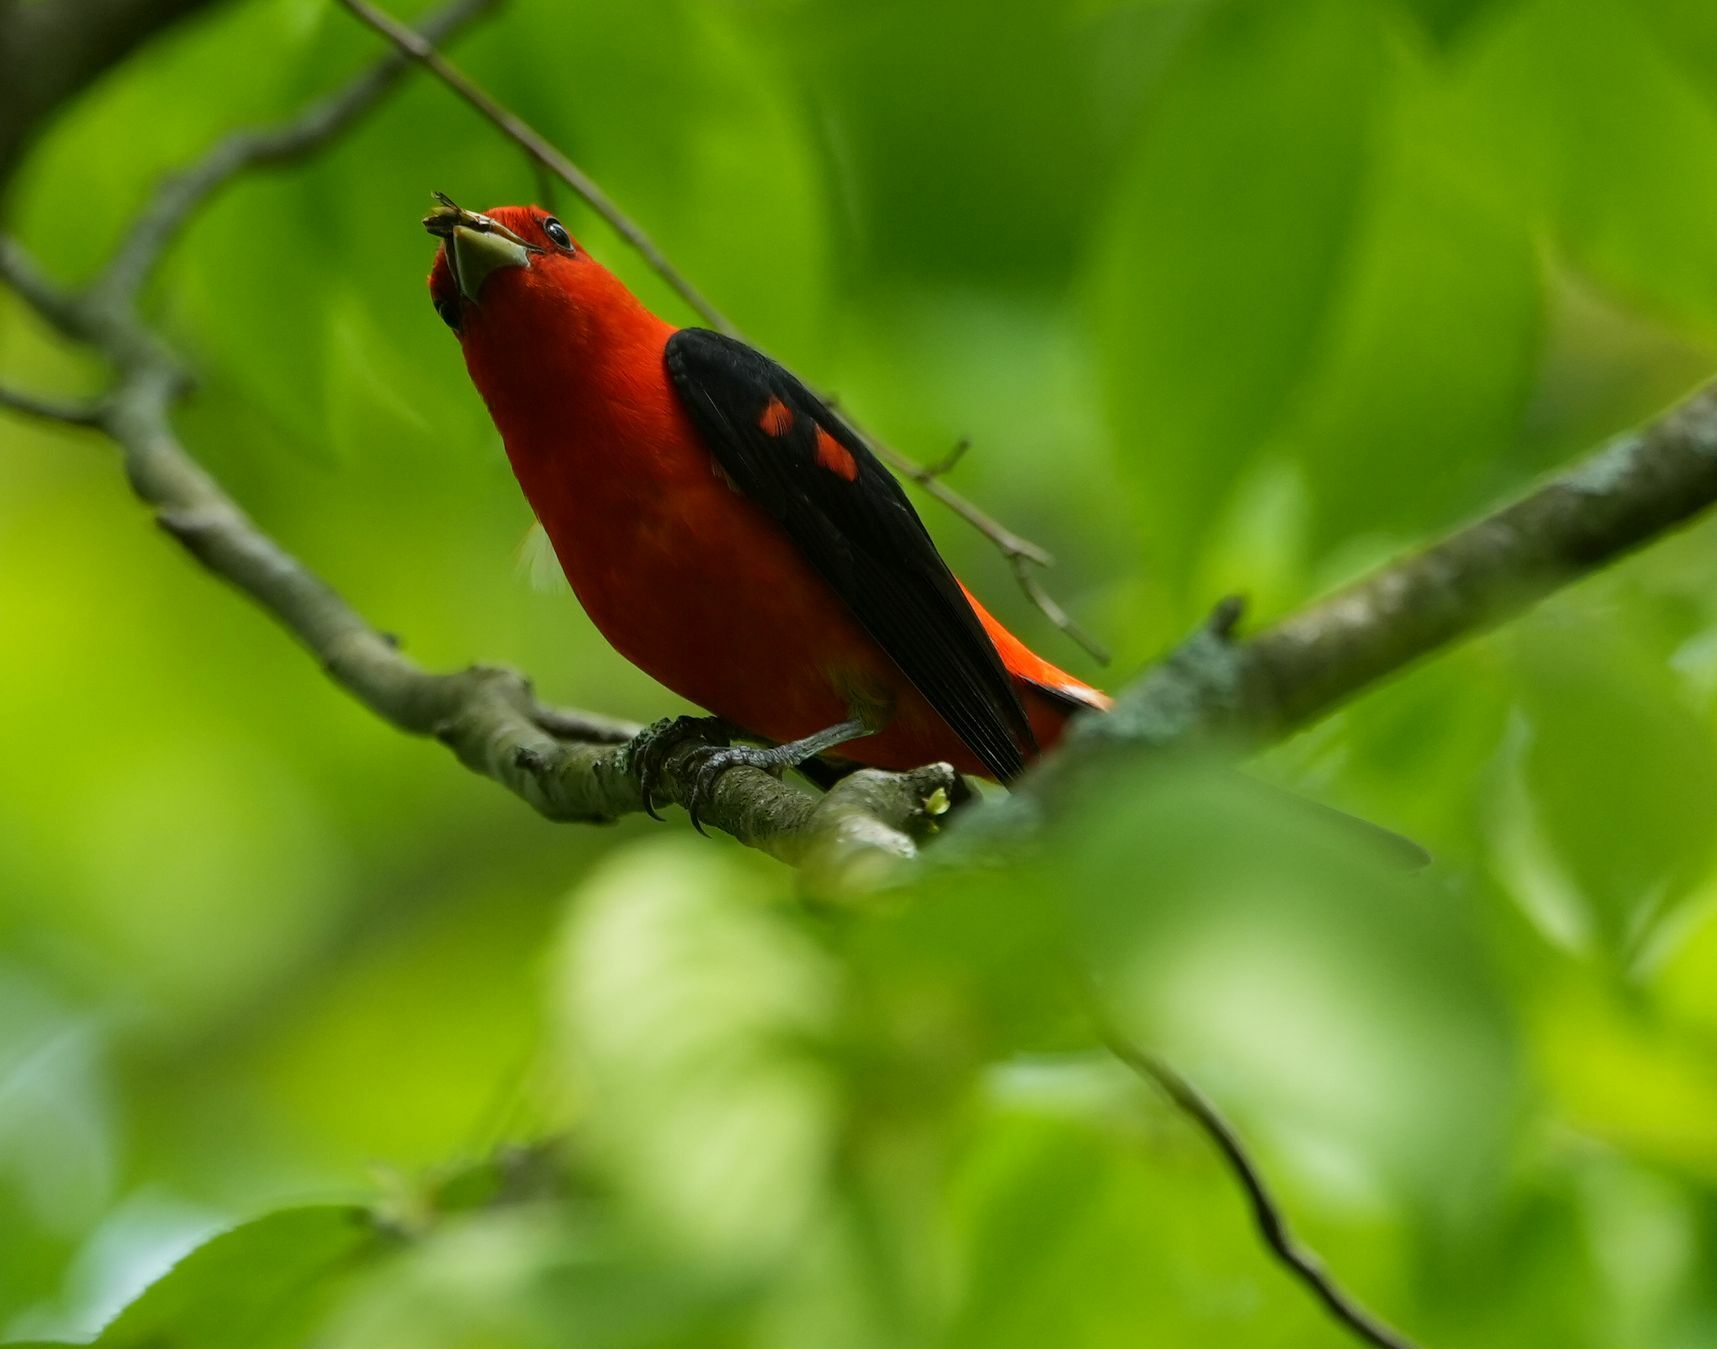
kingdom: Animalia
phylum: Chordata
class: Aves
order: Passeriformes
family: Cardinalidae
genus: Piranga
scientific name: Piranga olivacea
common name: Scarlet tanager
